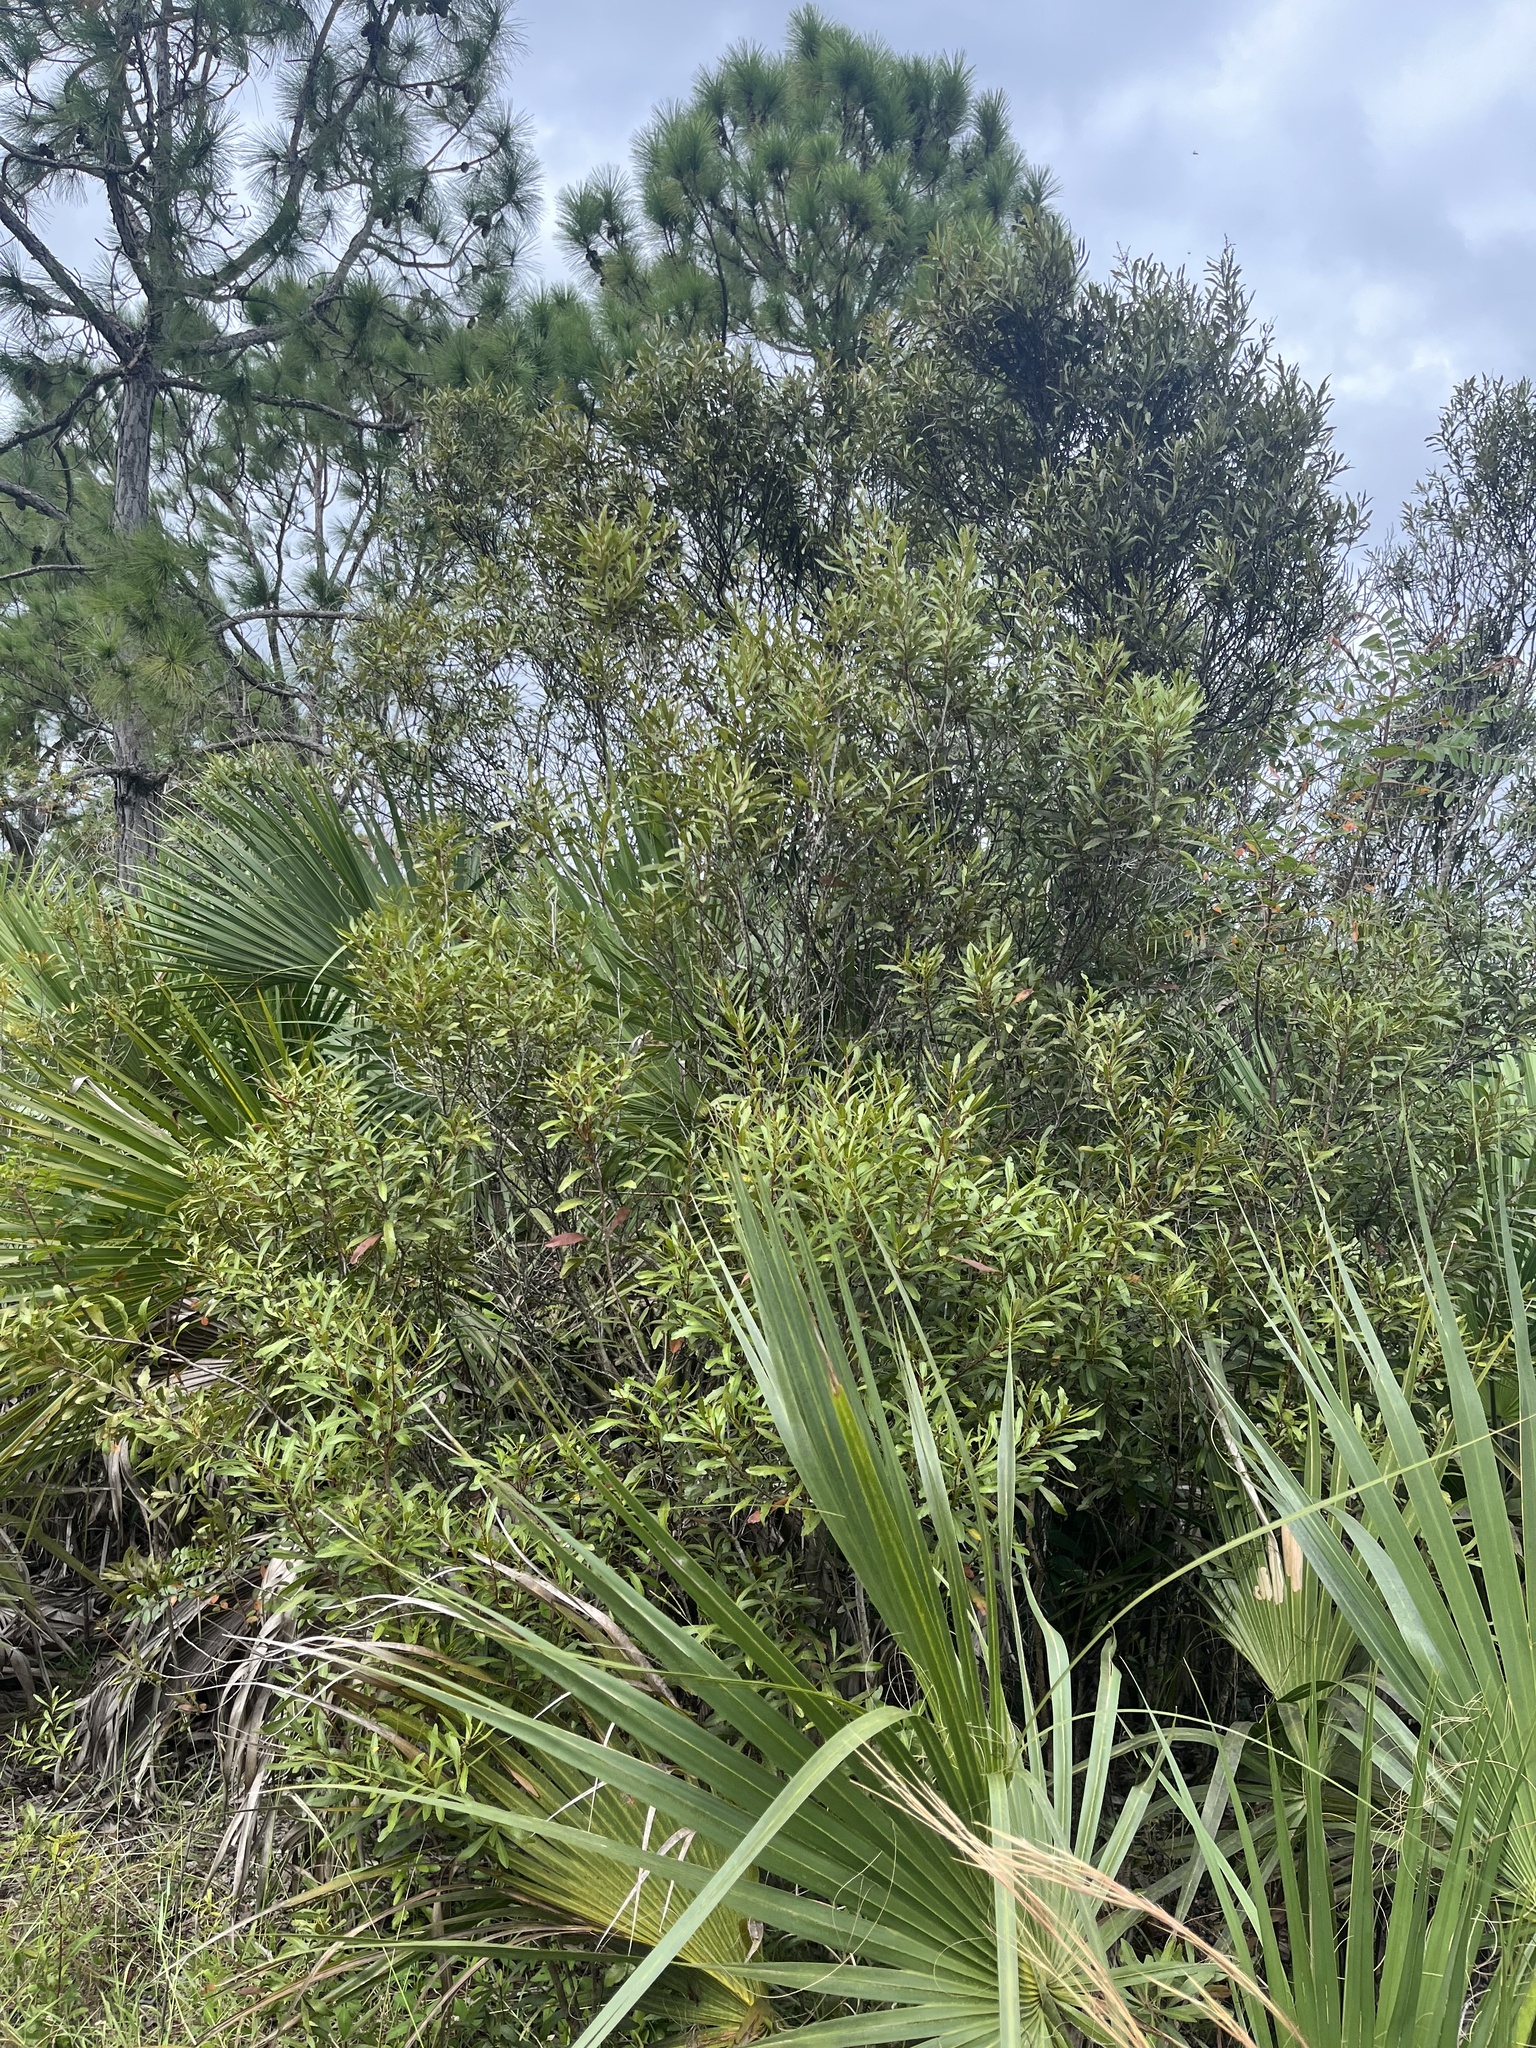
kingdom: Plantae
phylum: Tracheophyta
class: Magnoliopsida
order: Fagales
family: Myricaceae
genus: Morella
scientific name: Morella cerifera
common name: Wax myrtle
